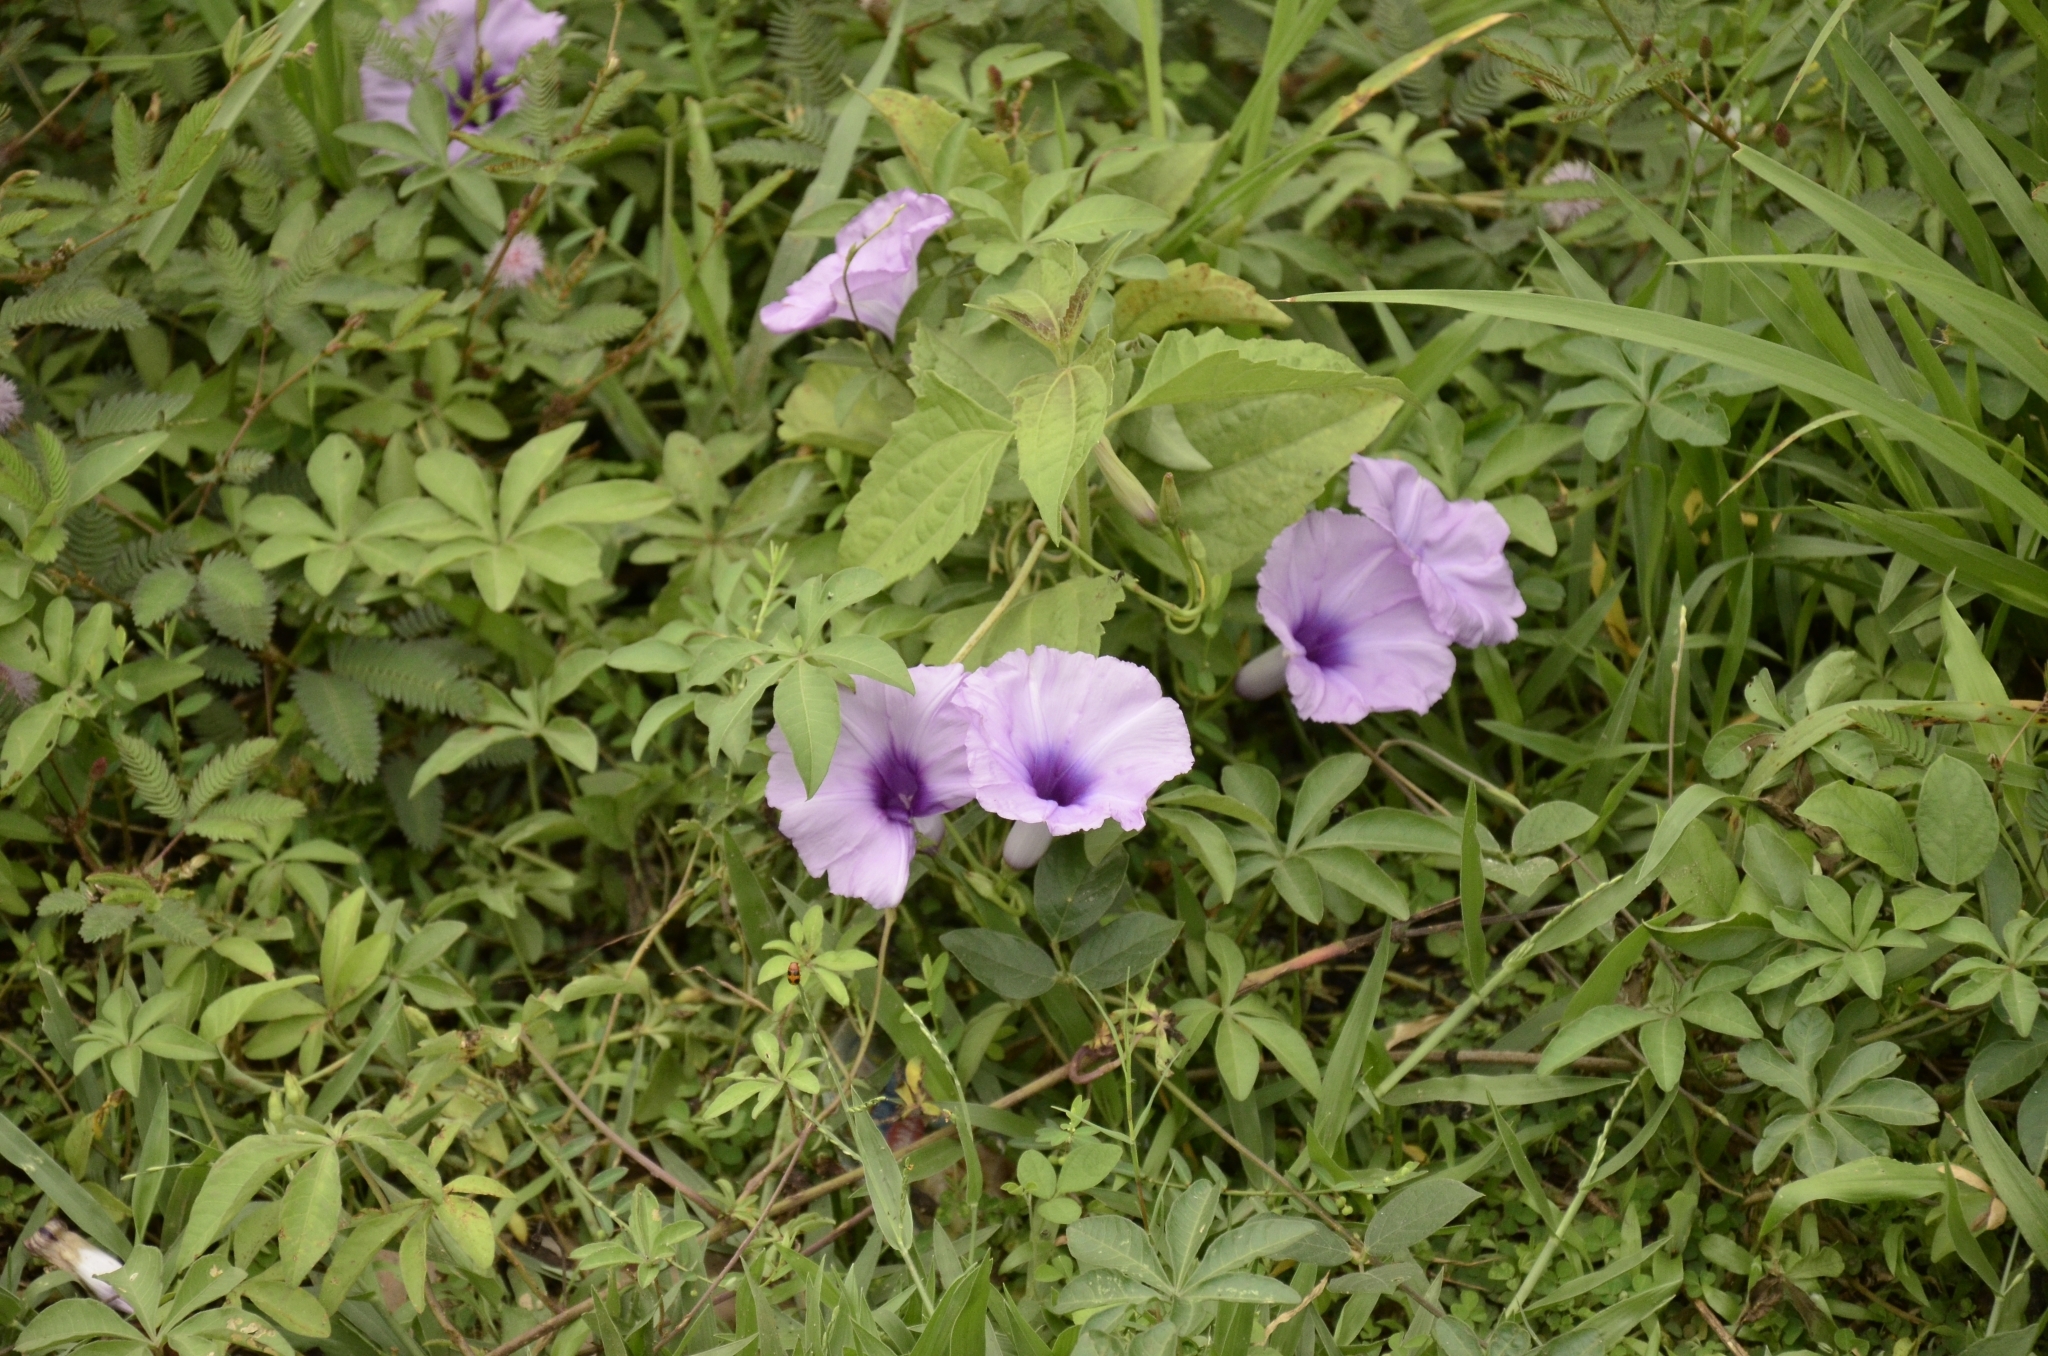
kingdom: Plantae
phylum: Tracheophyta
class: Magnoliopsida
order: Solanales
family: Convolvulaceae
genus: Ipomoea
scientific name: Ipomoea cairica
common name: Mile a minute vine
